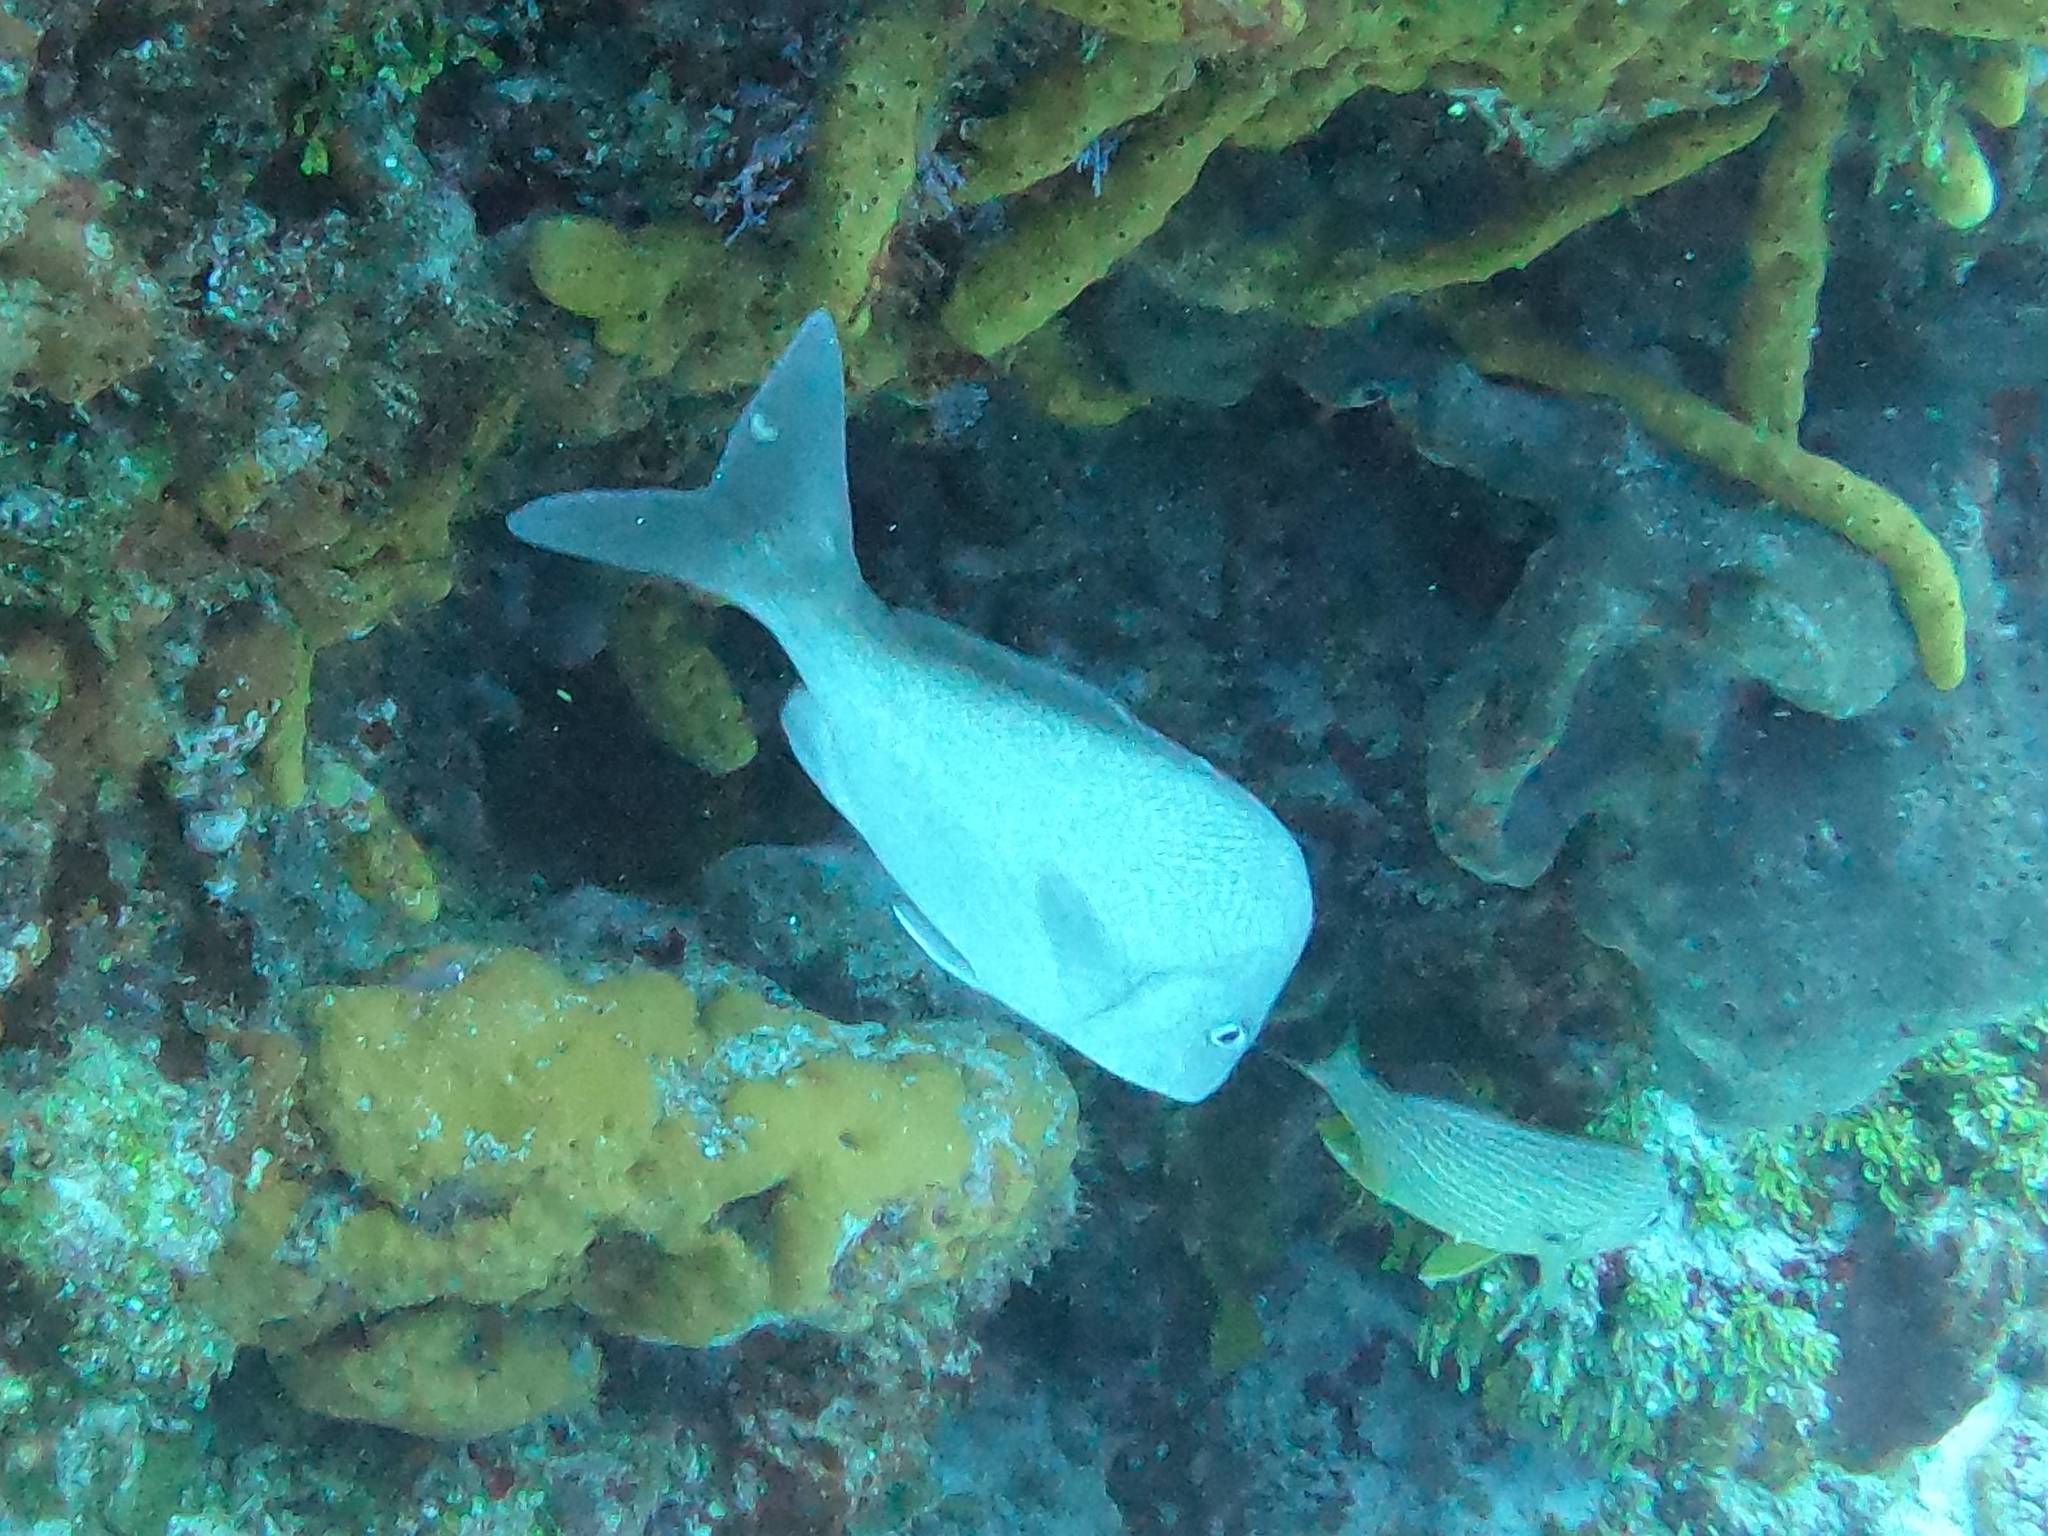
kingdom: Animalia
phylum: Chordata
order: Perciformes
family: Haemulidae
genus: Haemulon
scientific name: Haemulon album
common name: Margate
